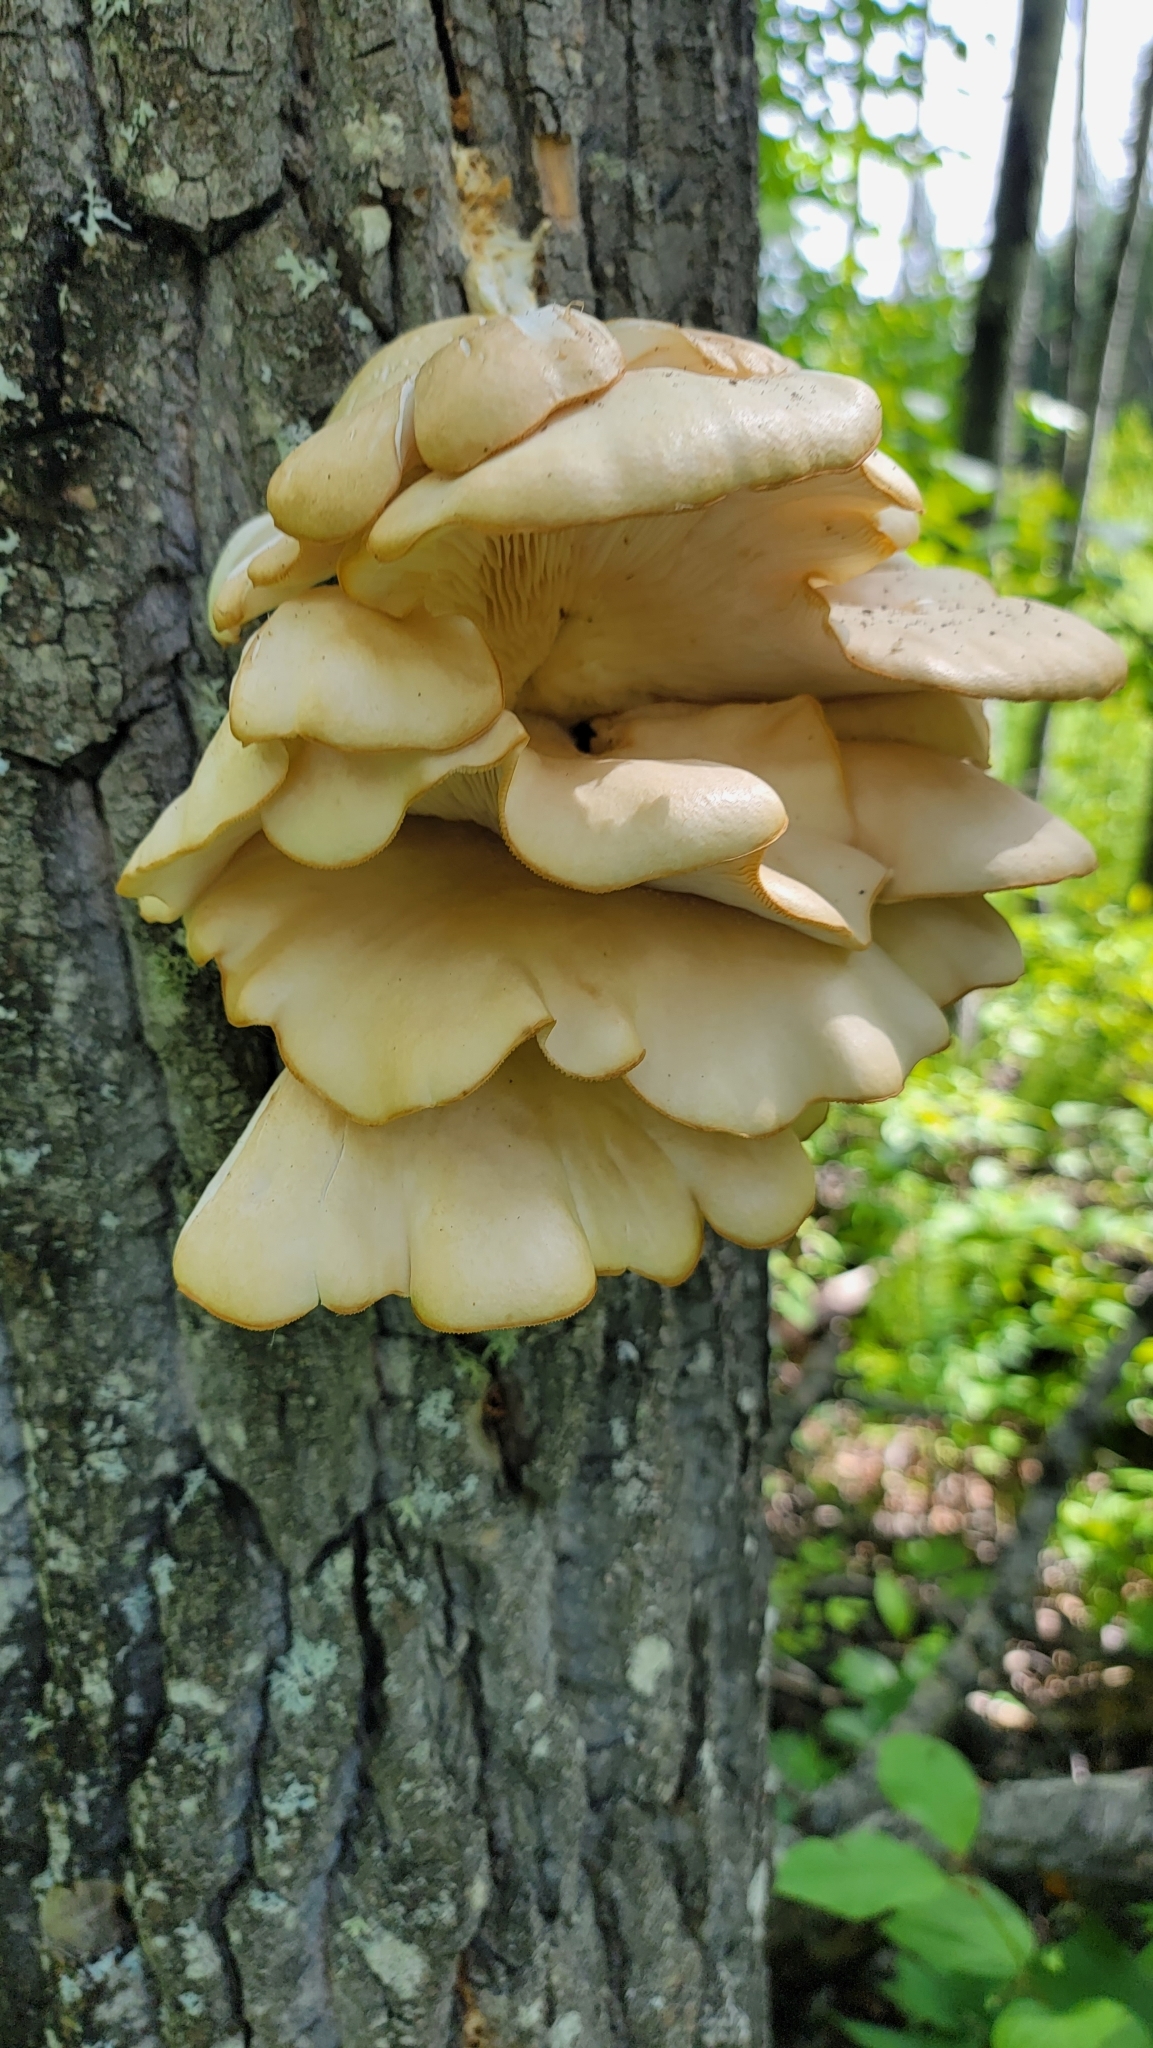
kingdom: Fungi
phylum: Basidiomycota
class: Agaricomycetes
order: Agaricales
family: Pleurotaceae
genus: Pleurotus
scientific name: Pleurotus ostreatus
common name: Oyster mushroom
